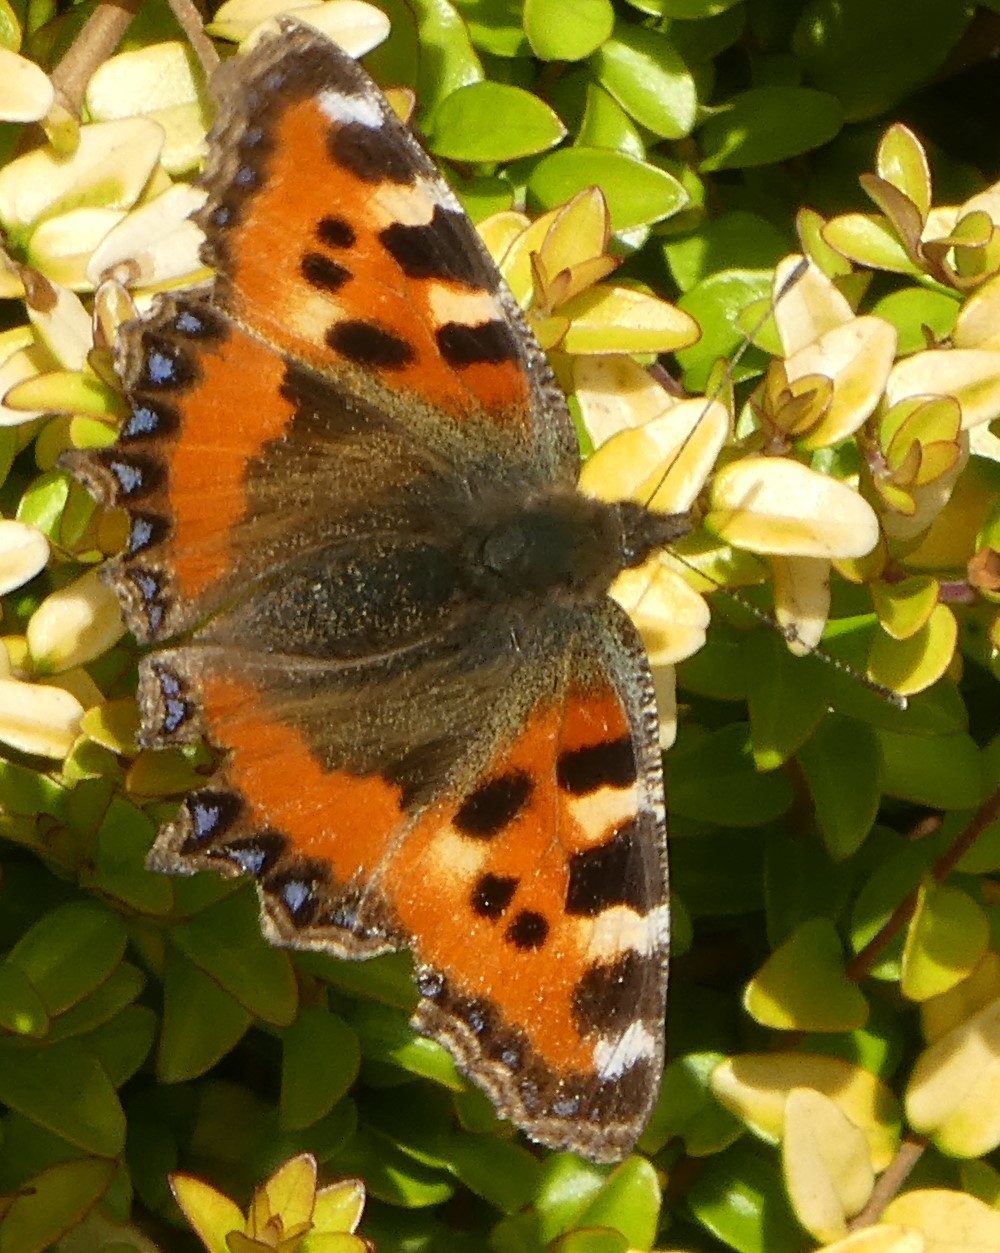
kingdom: Animalia
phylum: Arthropoda
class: Insecta
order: Lepidoptera
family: Nymphalidae
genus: Aglais
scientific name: Aglais urticae
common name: Small tortoiseshell
